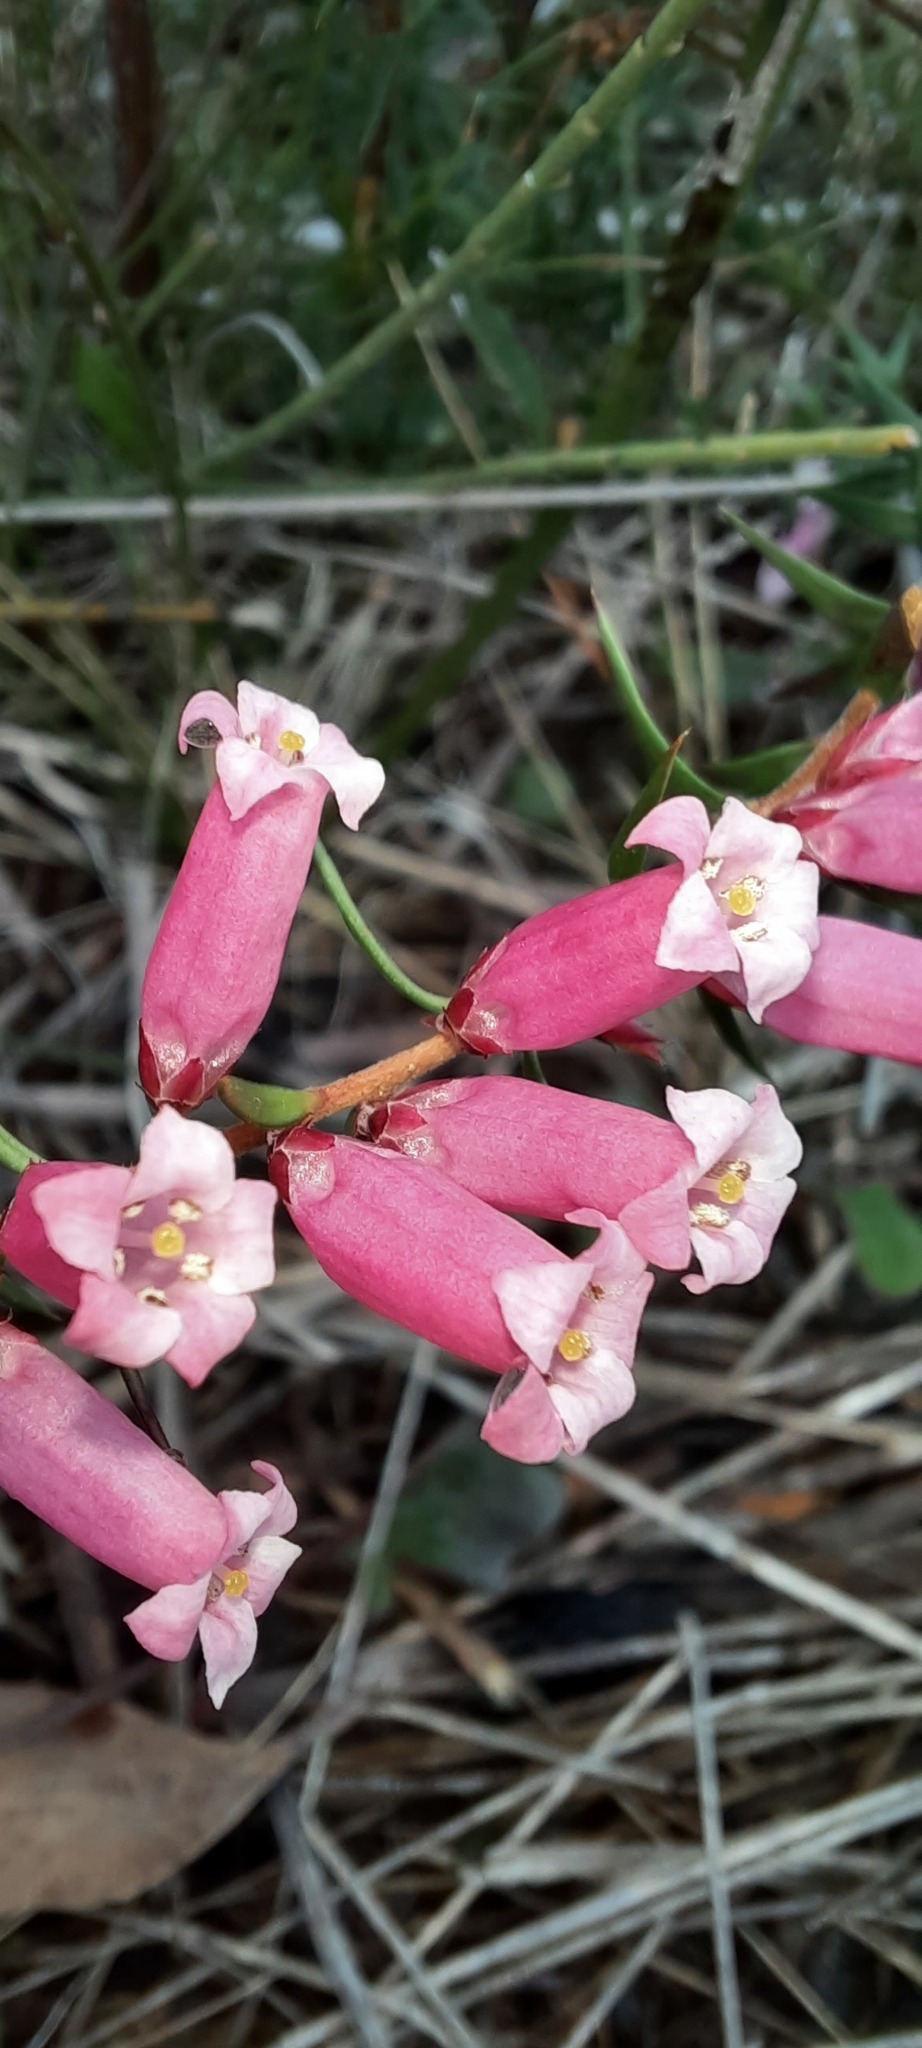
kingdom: Plantae
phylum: Tracheophyta
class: Magnoliopsida
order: Ericales
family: Ericaceae
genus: Epacris
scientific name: Epacris impressa
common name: Common-heath
